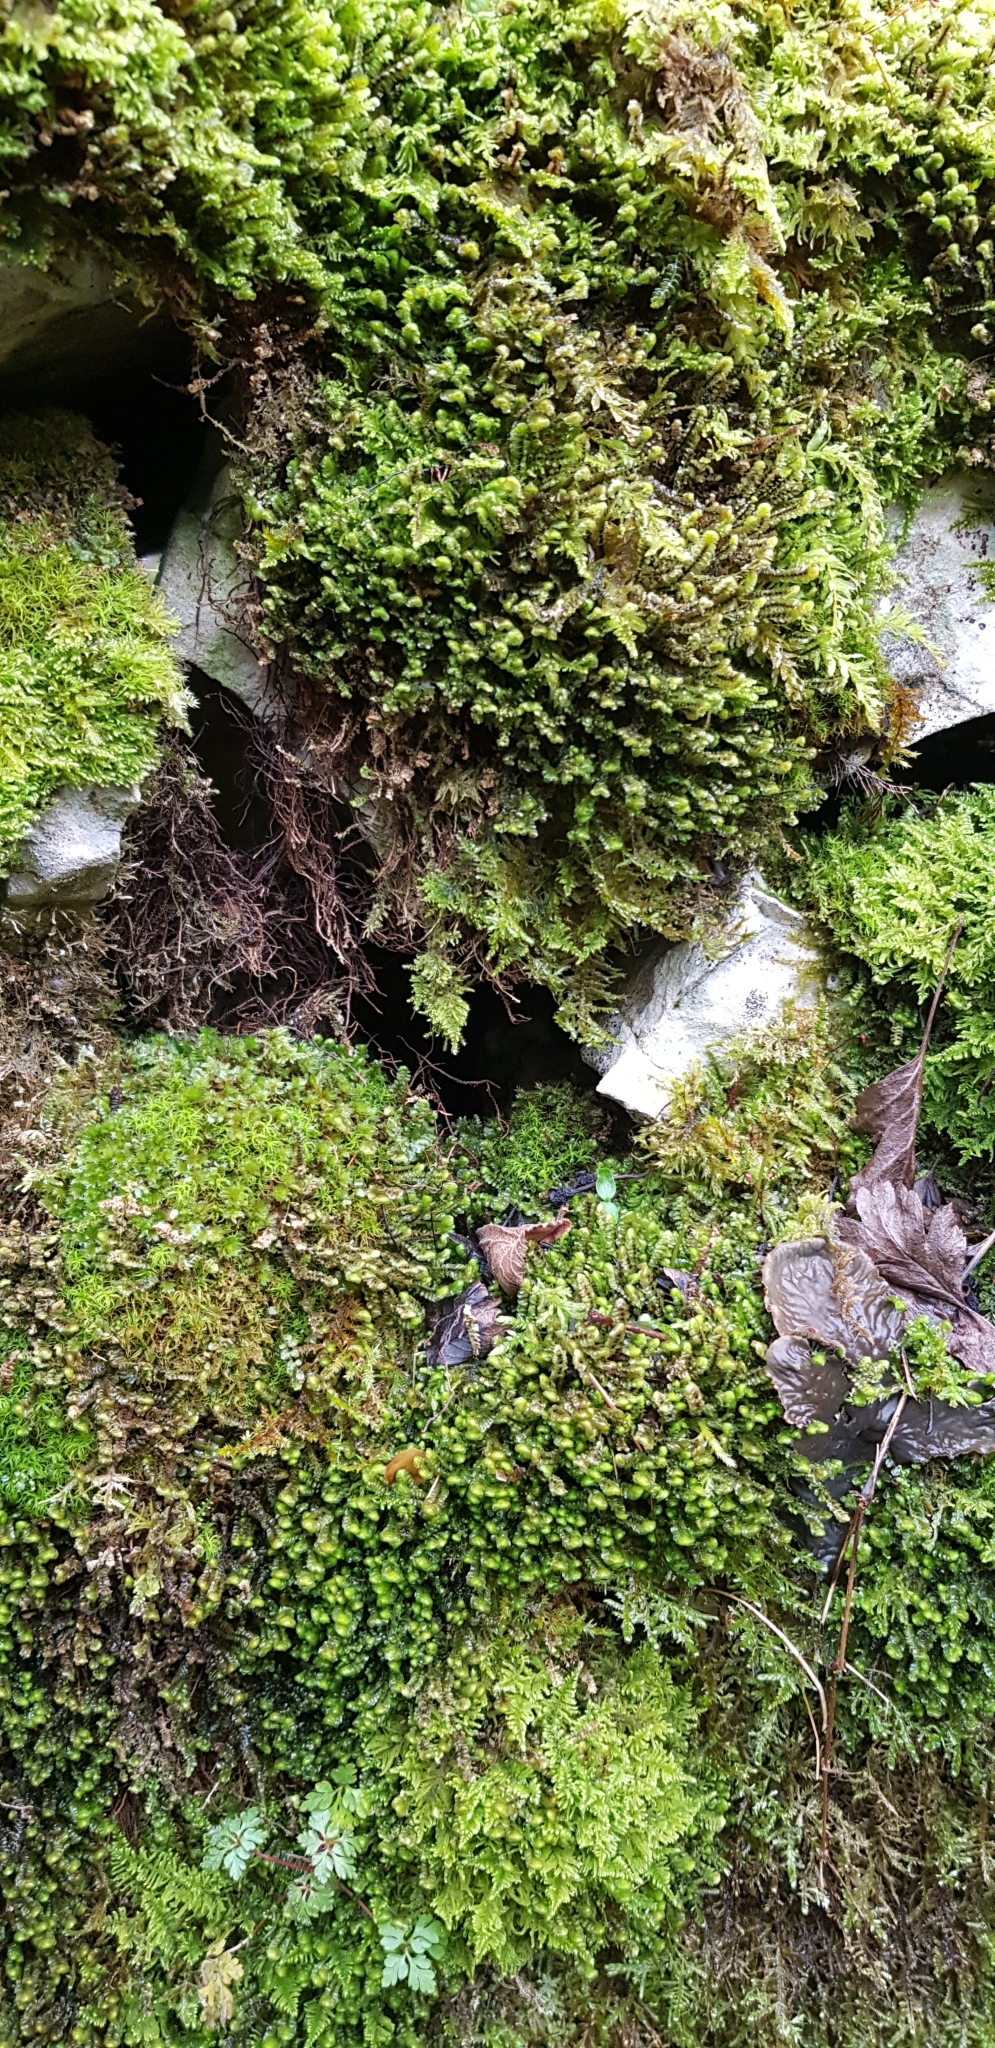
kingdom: Plantae
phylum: Marchantiophyta
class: Jungermanniopsida
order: Jungermanniales
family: Scapaniaceae
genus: Scapania
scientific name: Scapania aspera
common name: Rough earwort
